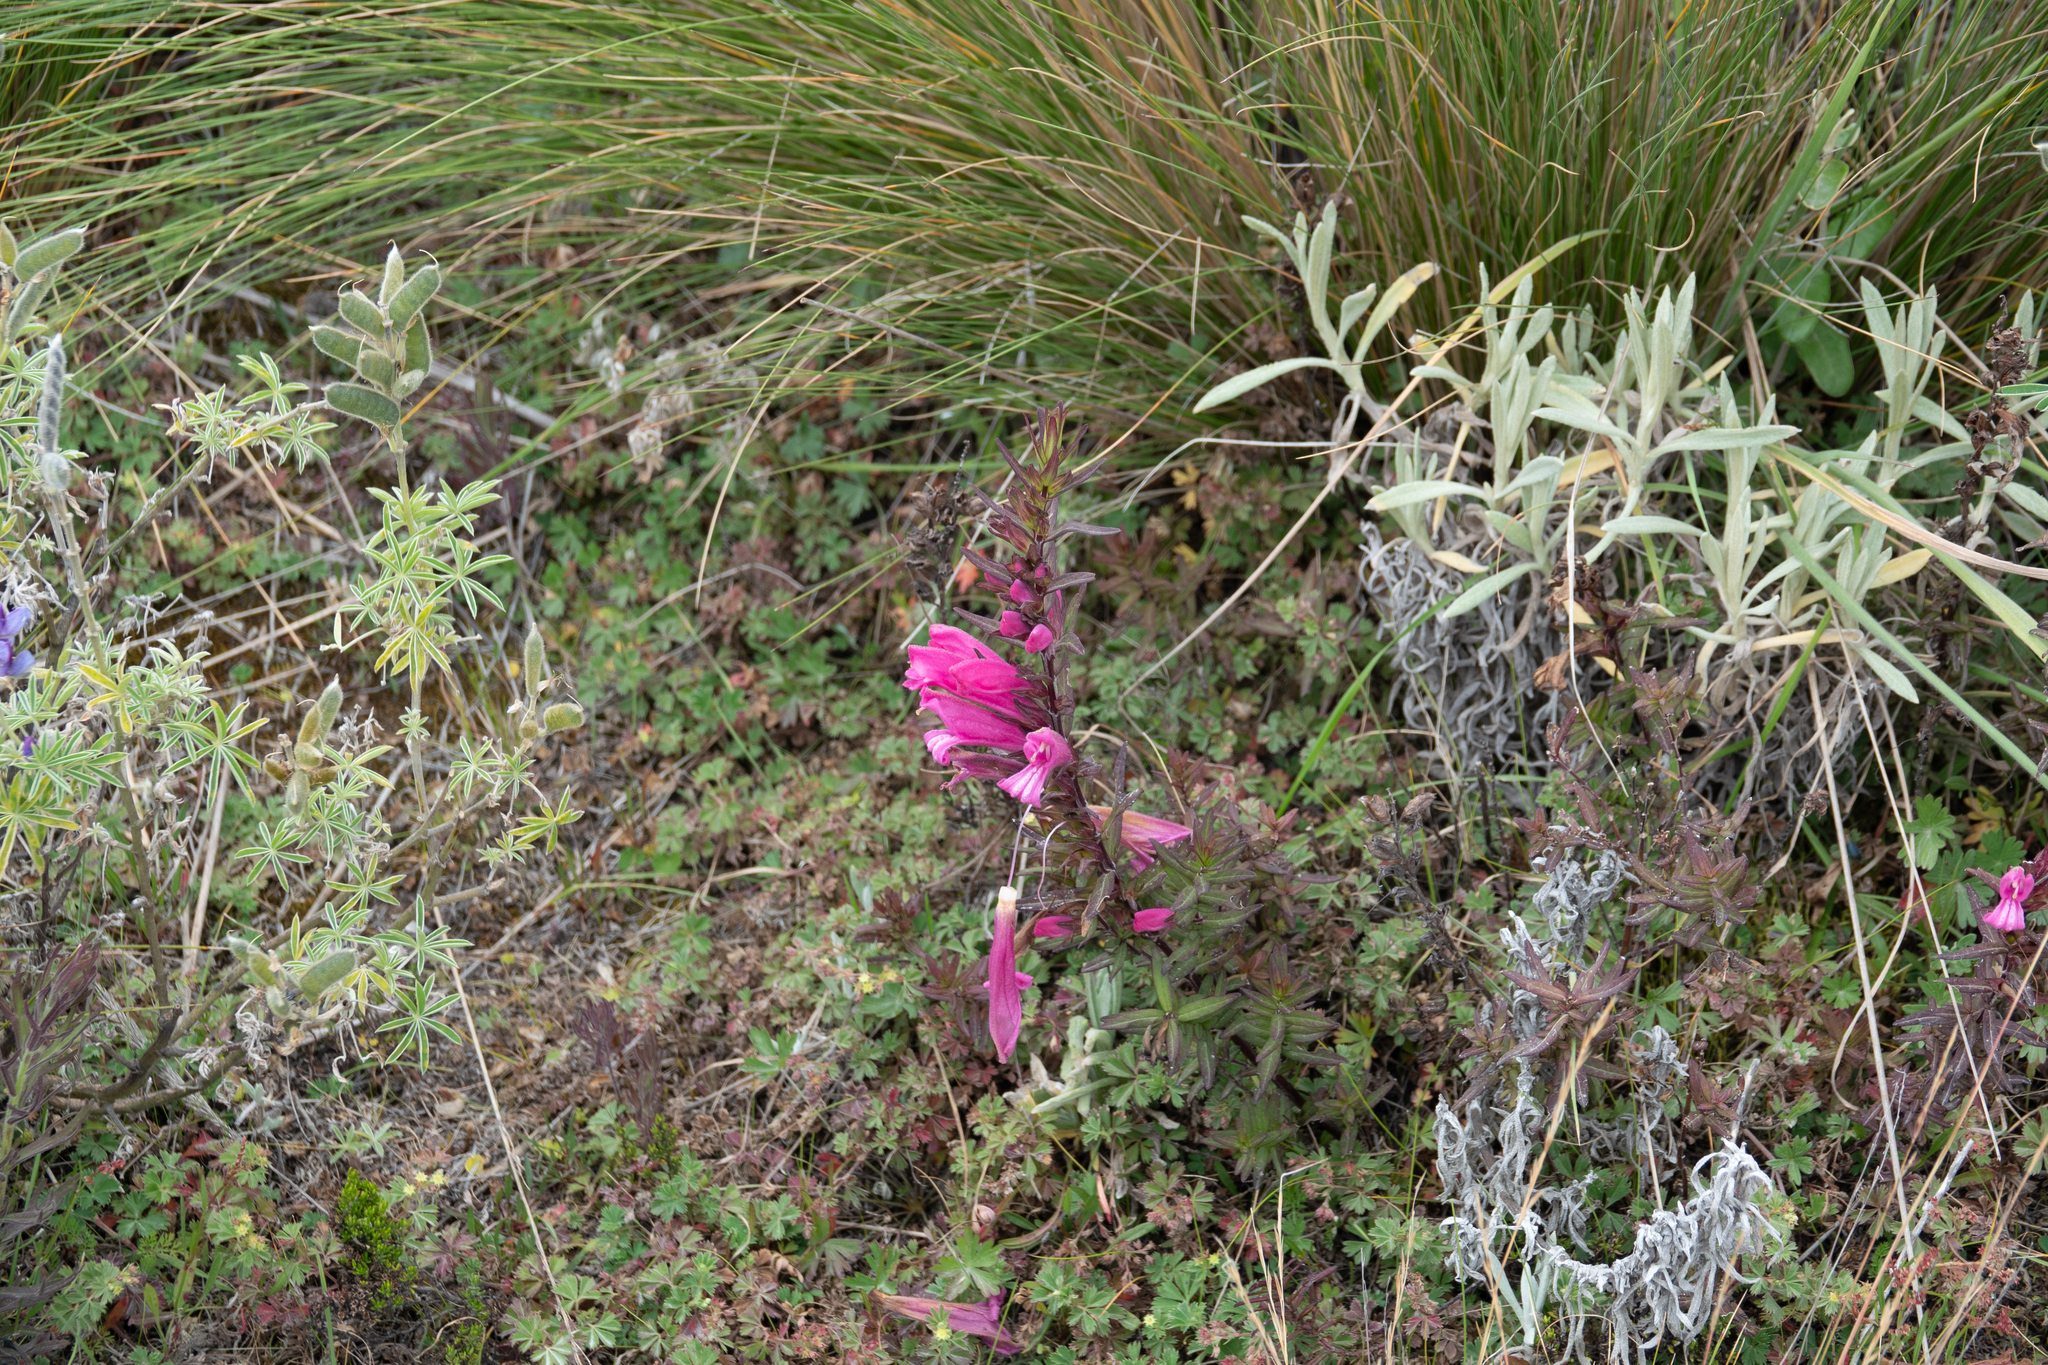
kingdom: Plantae
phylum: Tracheophyta
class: Magnoliopsida
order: Lamiales
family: Orobanchaceae
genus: Lamourouxia
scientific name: Lamourouxia virgata
